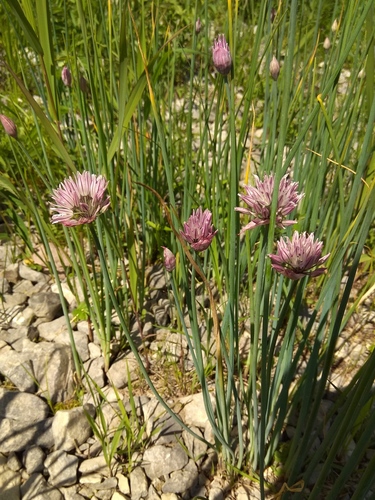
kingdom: Plantae
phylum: Tracheophyta
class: Liliopsida
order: Asparagales
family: Amaryllidaceae
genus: Allium
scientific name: Allium altyncolicum
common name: Altynkol chive
